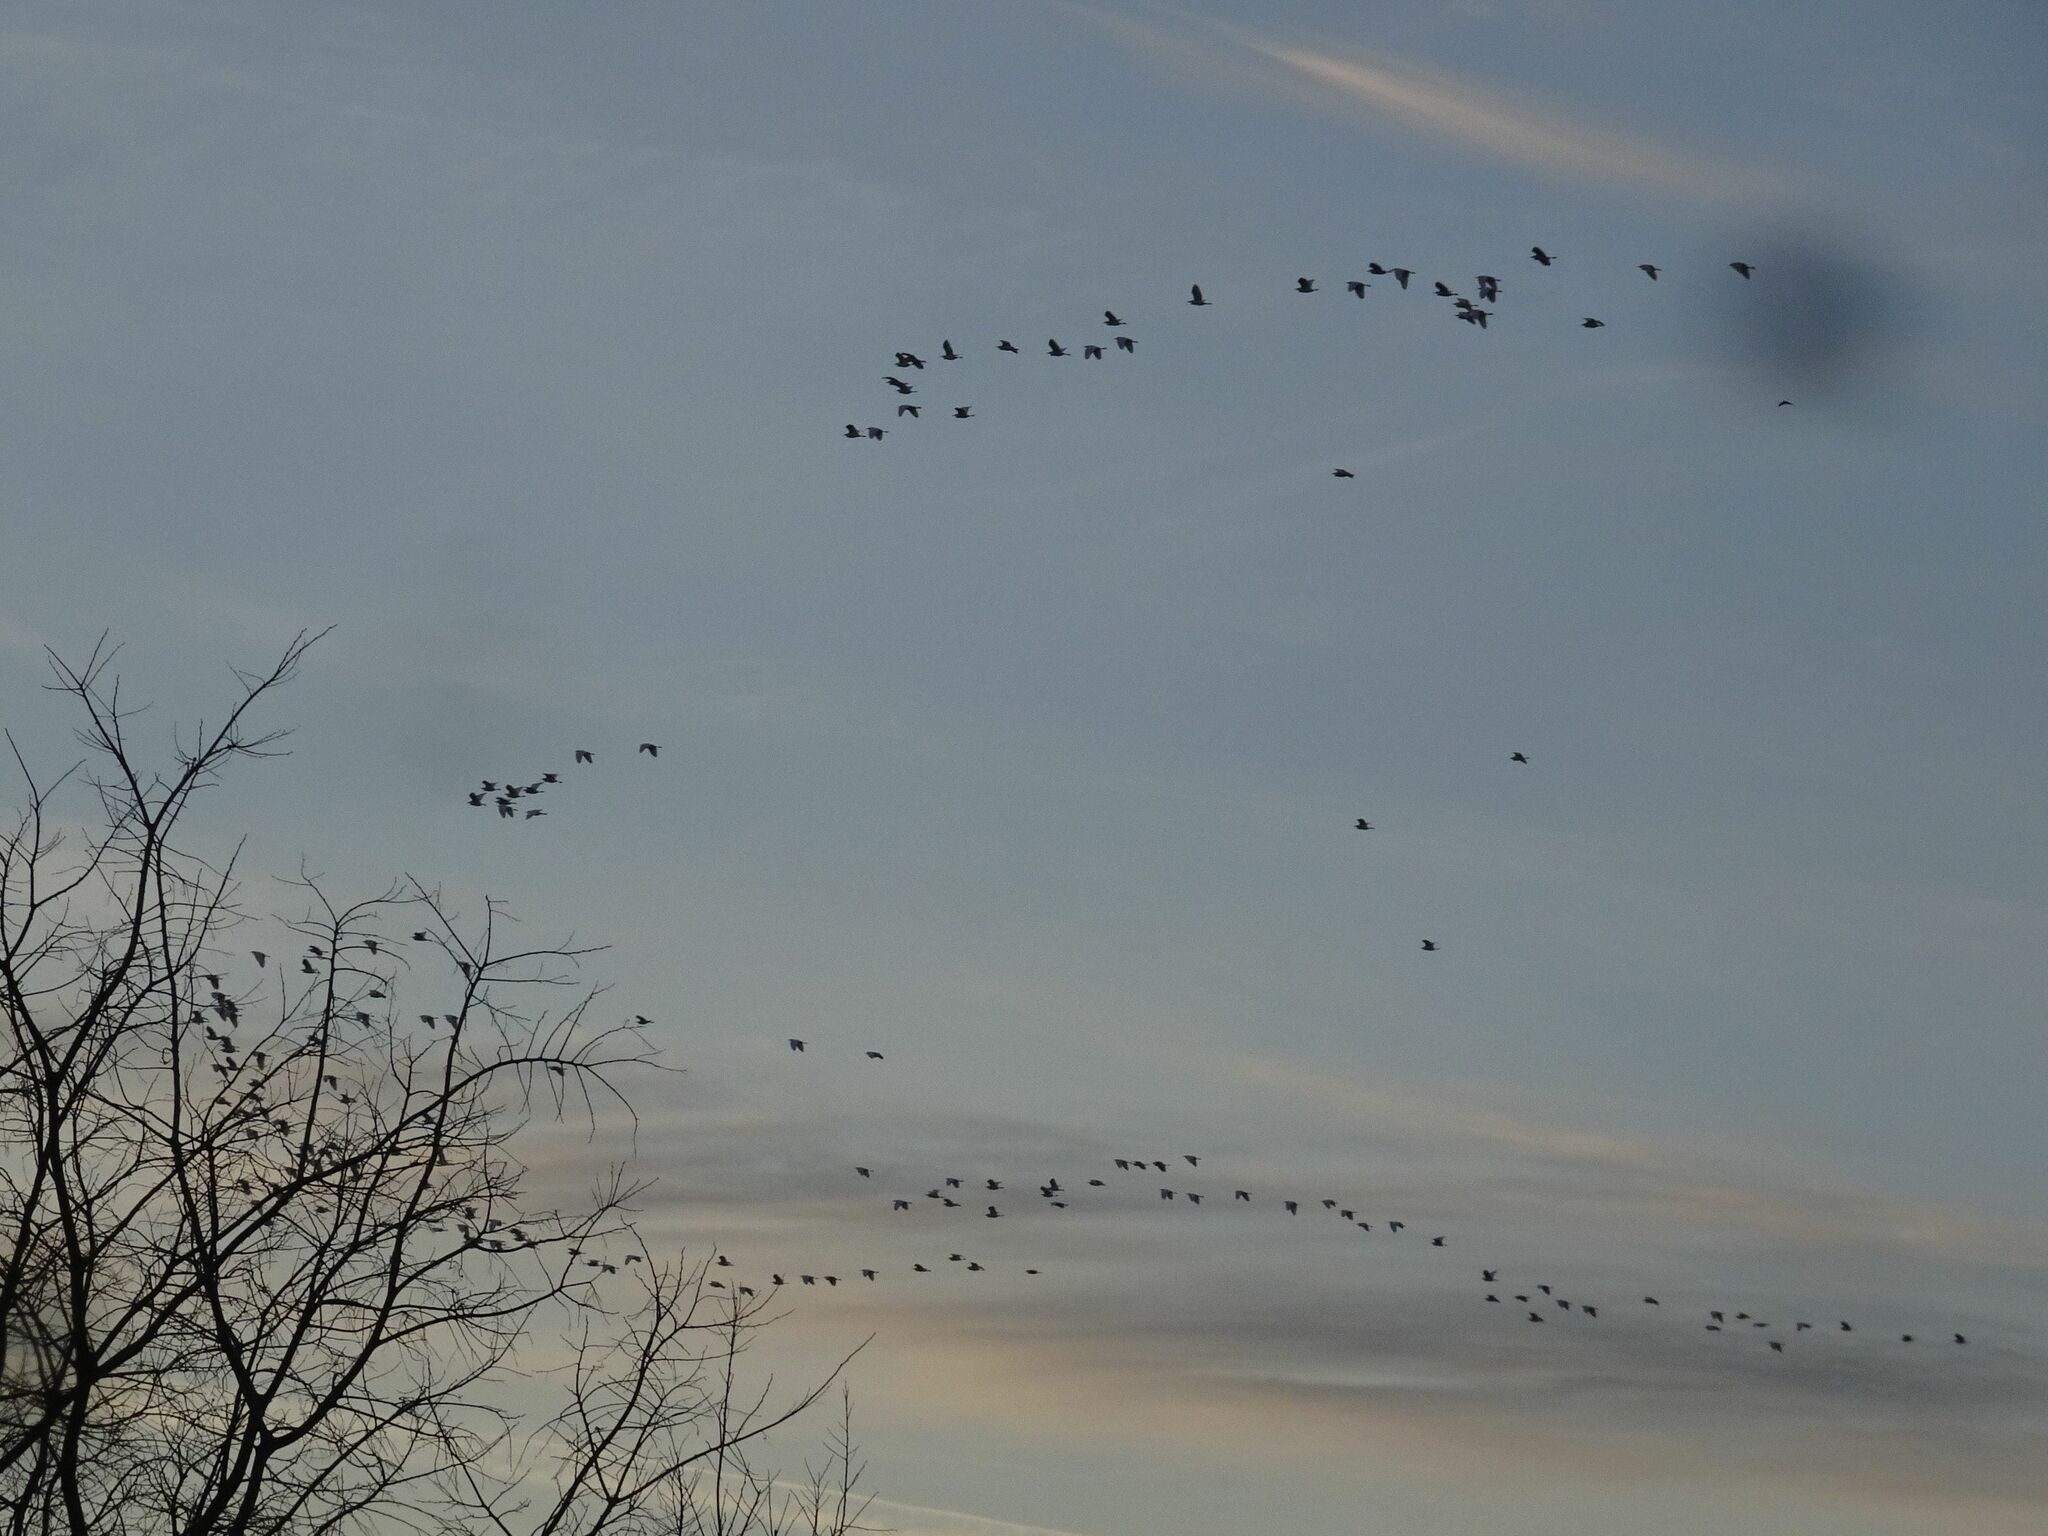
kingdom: Animalia
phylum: Chordata
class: Aves
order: Pelecaniformes
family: Ardeidae
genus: Bubulcus
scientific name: Bubulcus ibis
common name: Cattle egret
